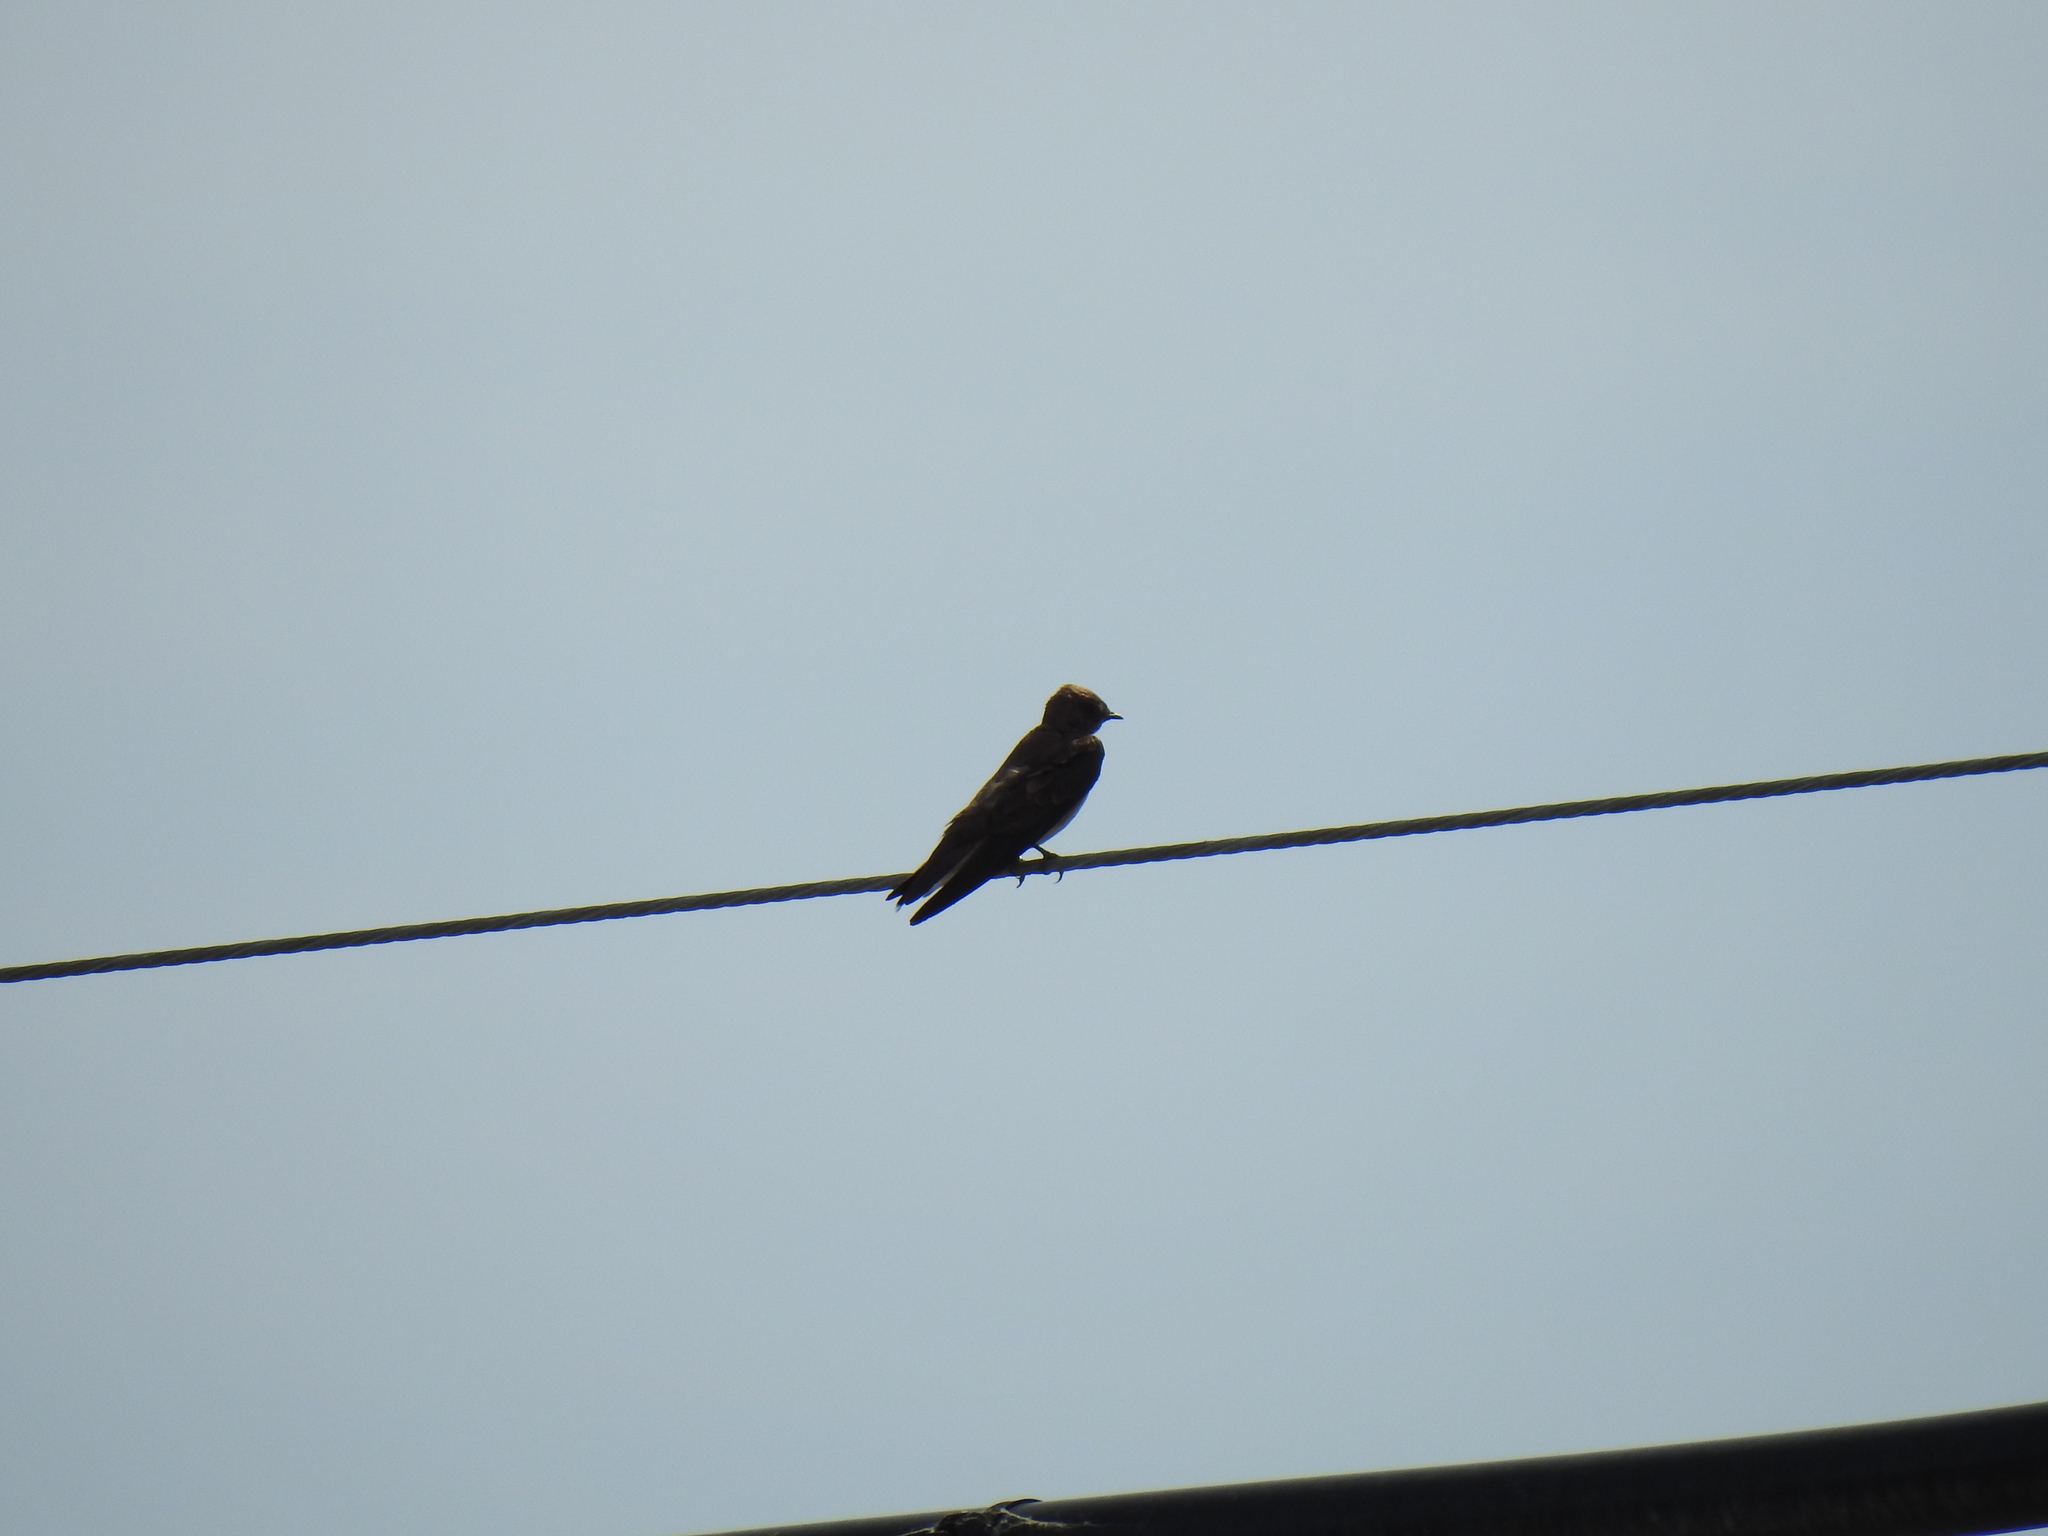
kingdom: Animalia
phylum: Chordata
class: Aves
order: Passeriformes
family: Hirundinidae
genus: Stelgidopteryx
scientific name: Stelgidopteryx serripennis
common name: Northern rough-winged swallow
